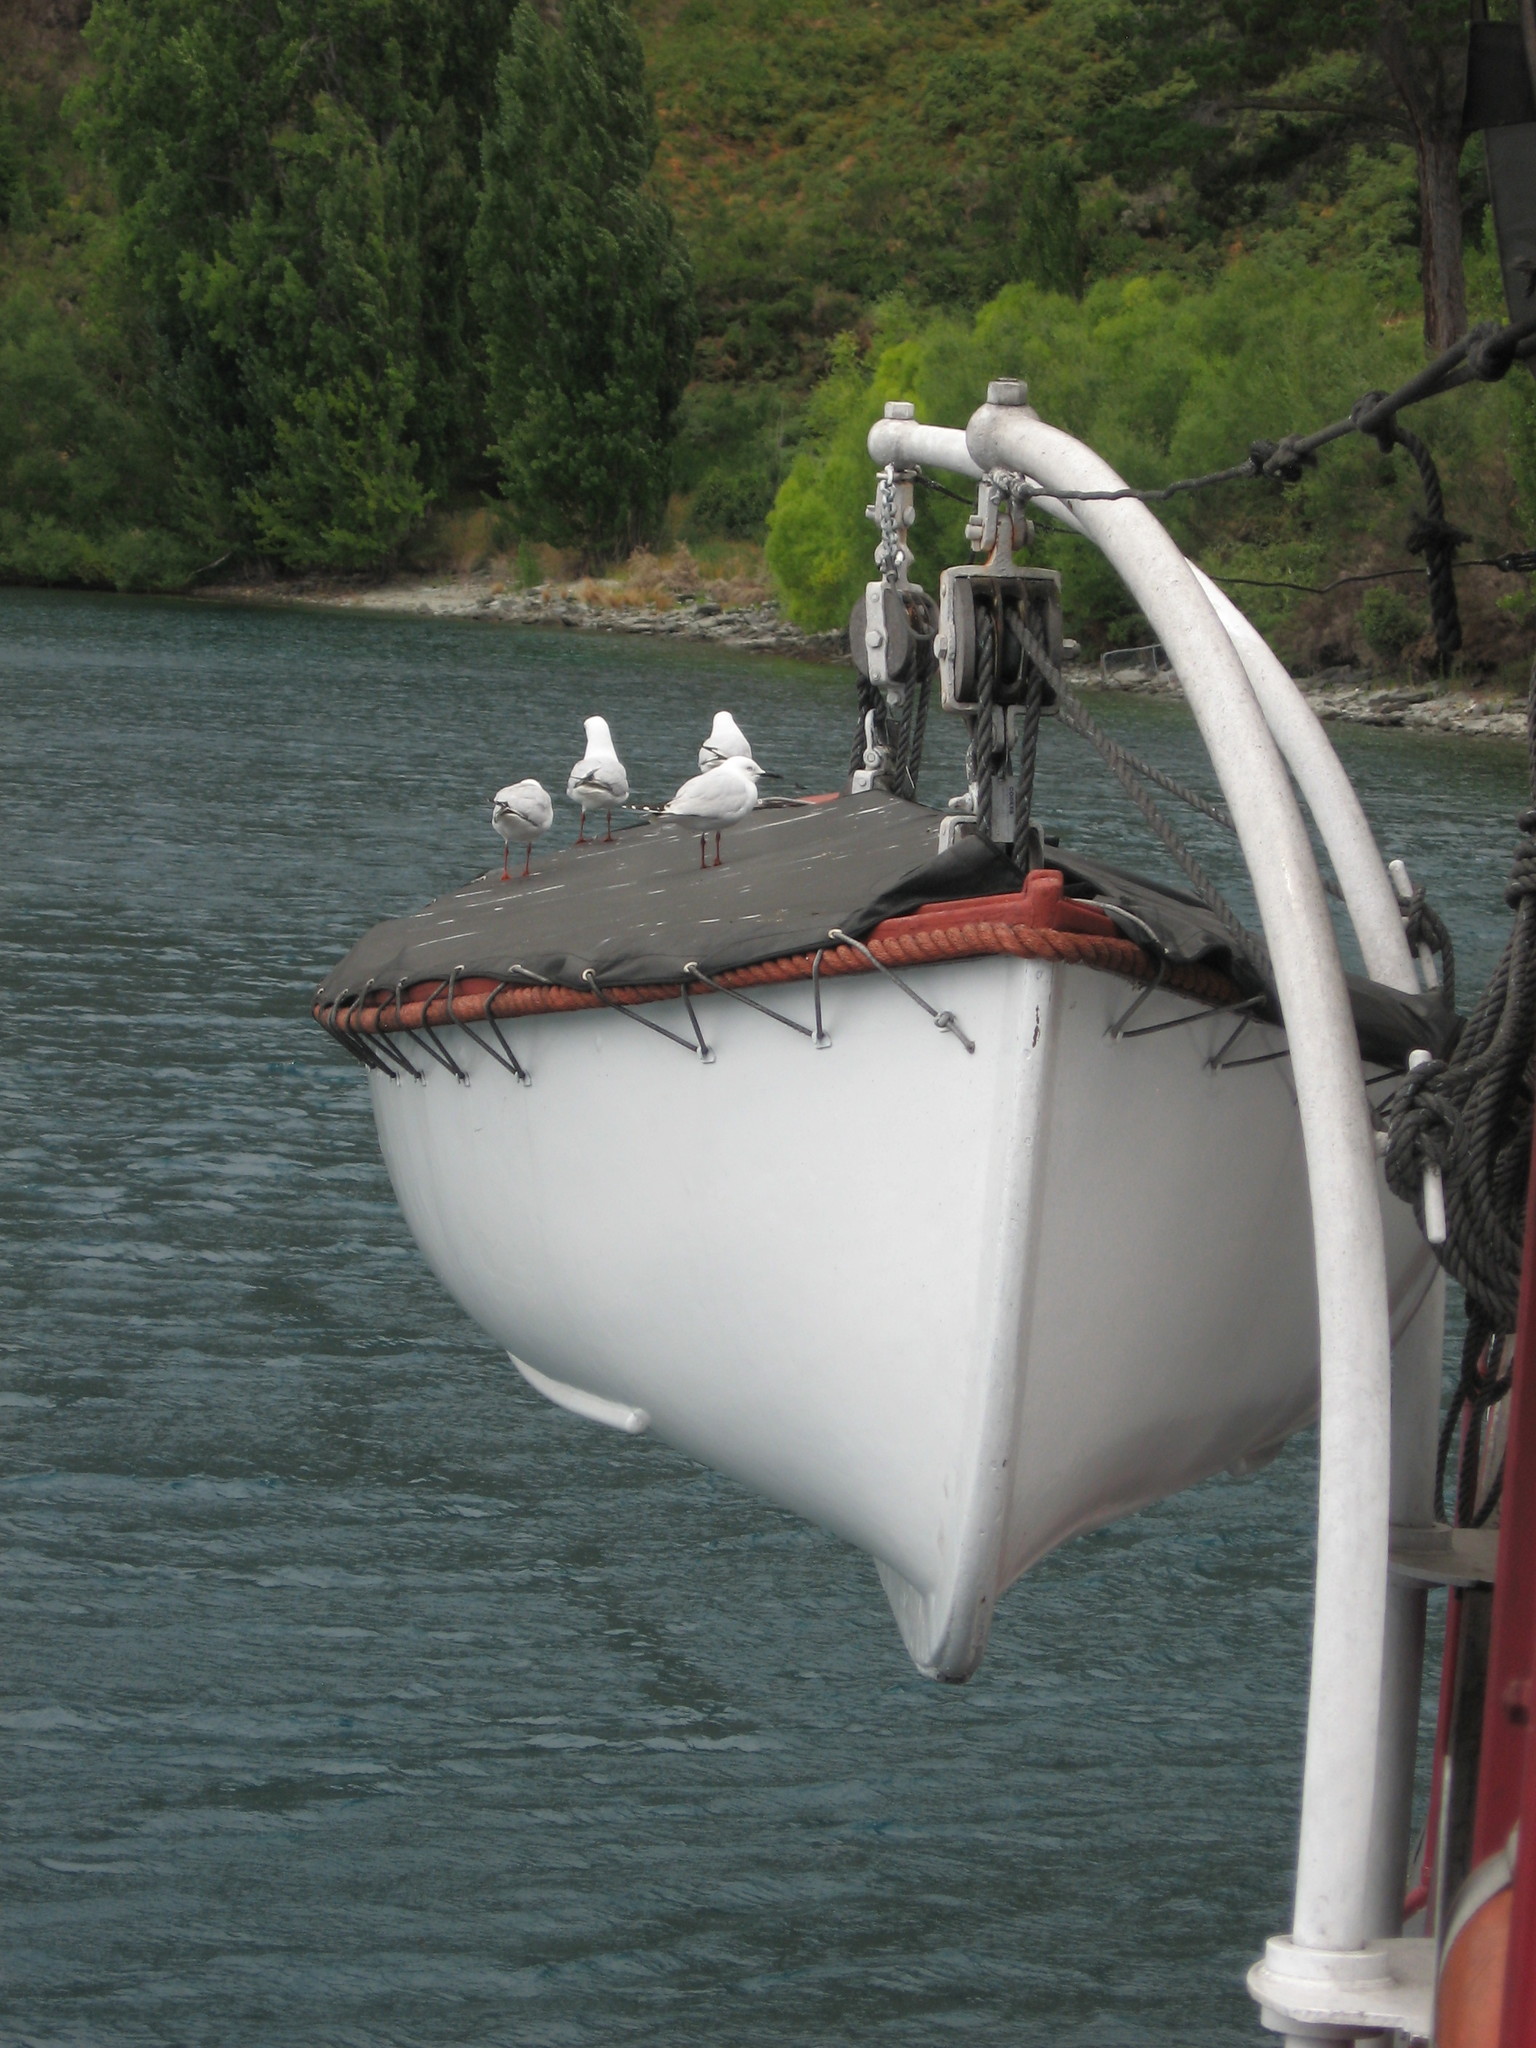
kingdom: Animalia
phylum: Chordata
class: Aves
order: Charadriiformes
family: Laridae
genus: Chroicocephalus
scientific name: Chroicocephalus bulleri
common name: Black-billed gull
